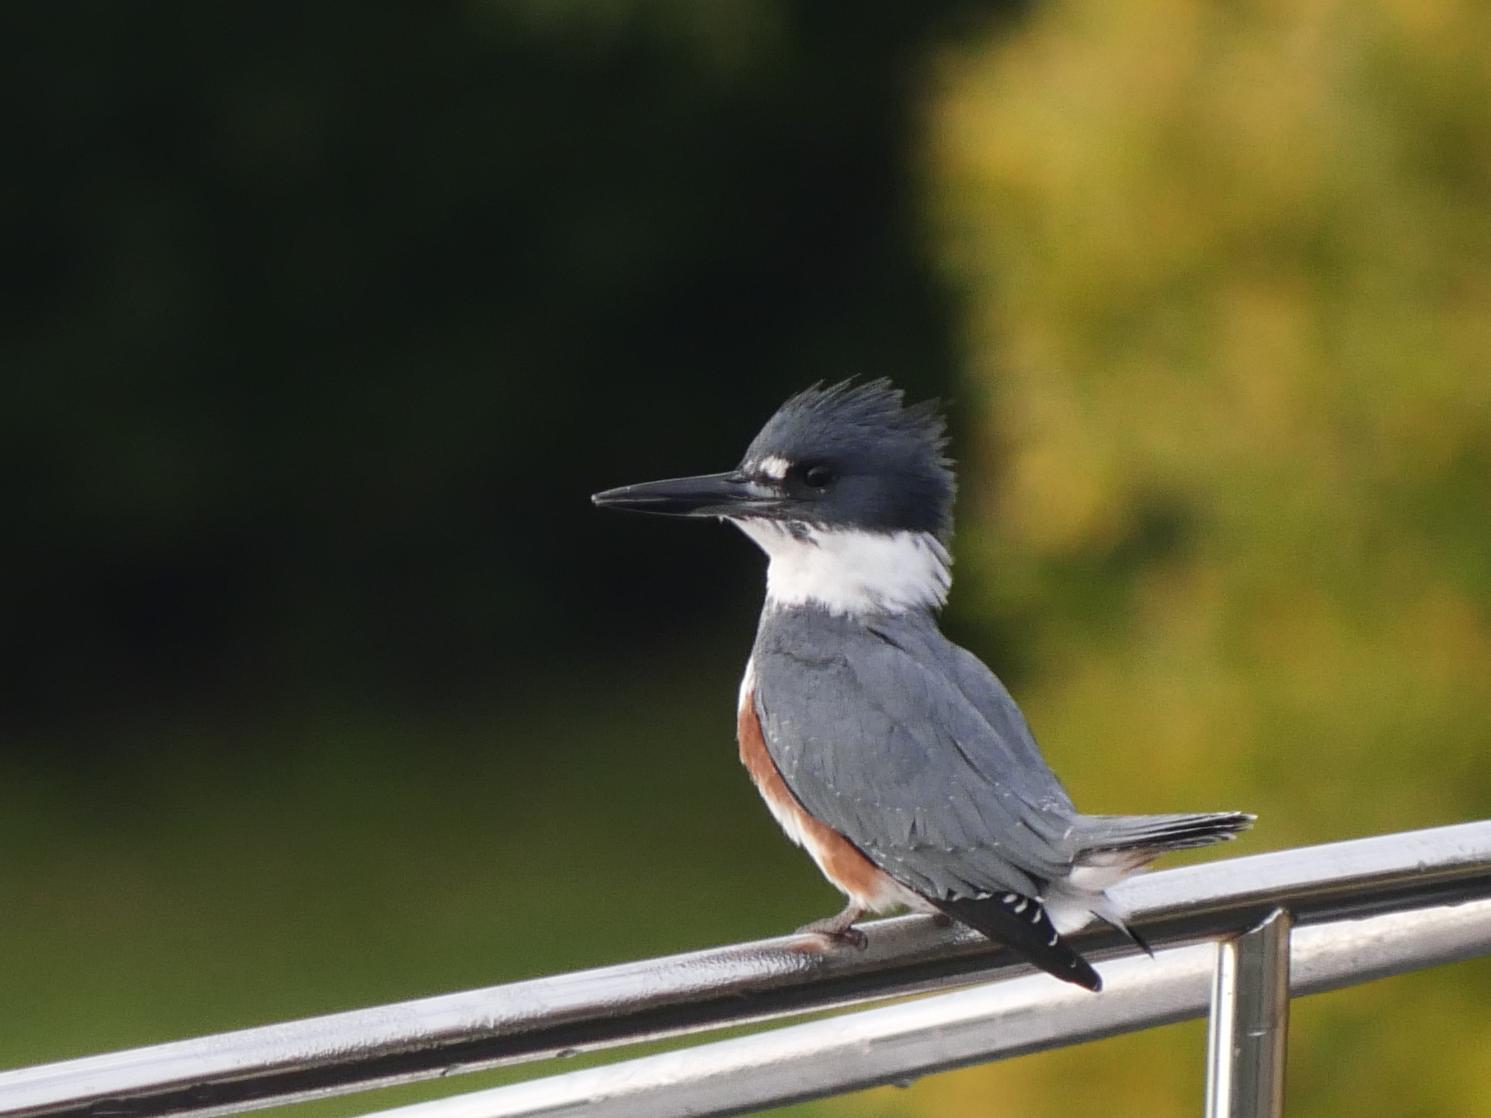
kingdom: Animalia
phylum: Chordata
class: Aves
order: Coraciiformes
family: Alcedinidae
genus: Megaceryle
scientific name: Megaceryle alcyon
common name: Belted kingfisher
